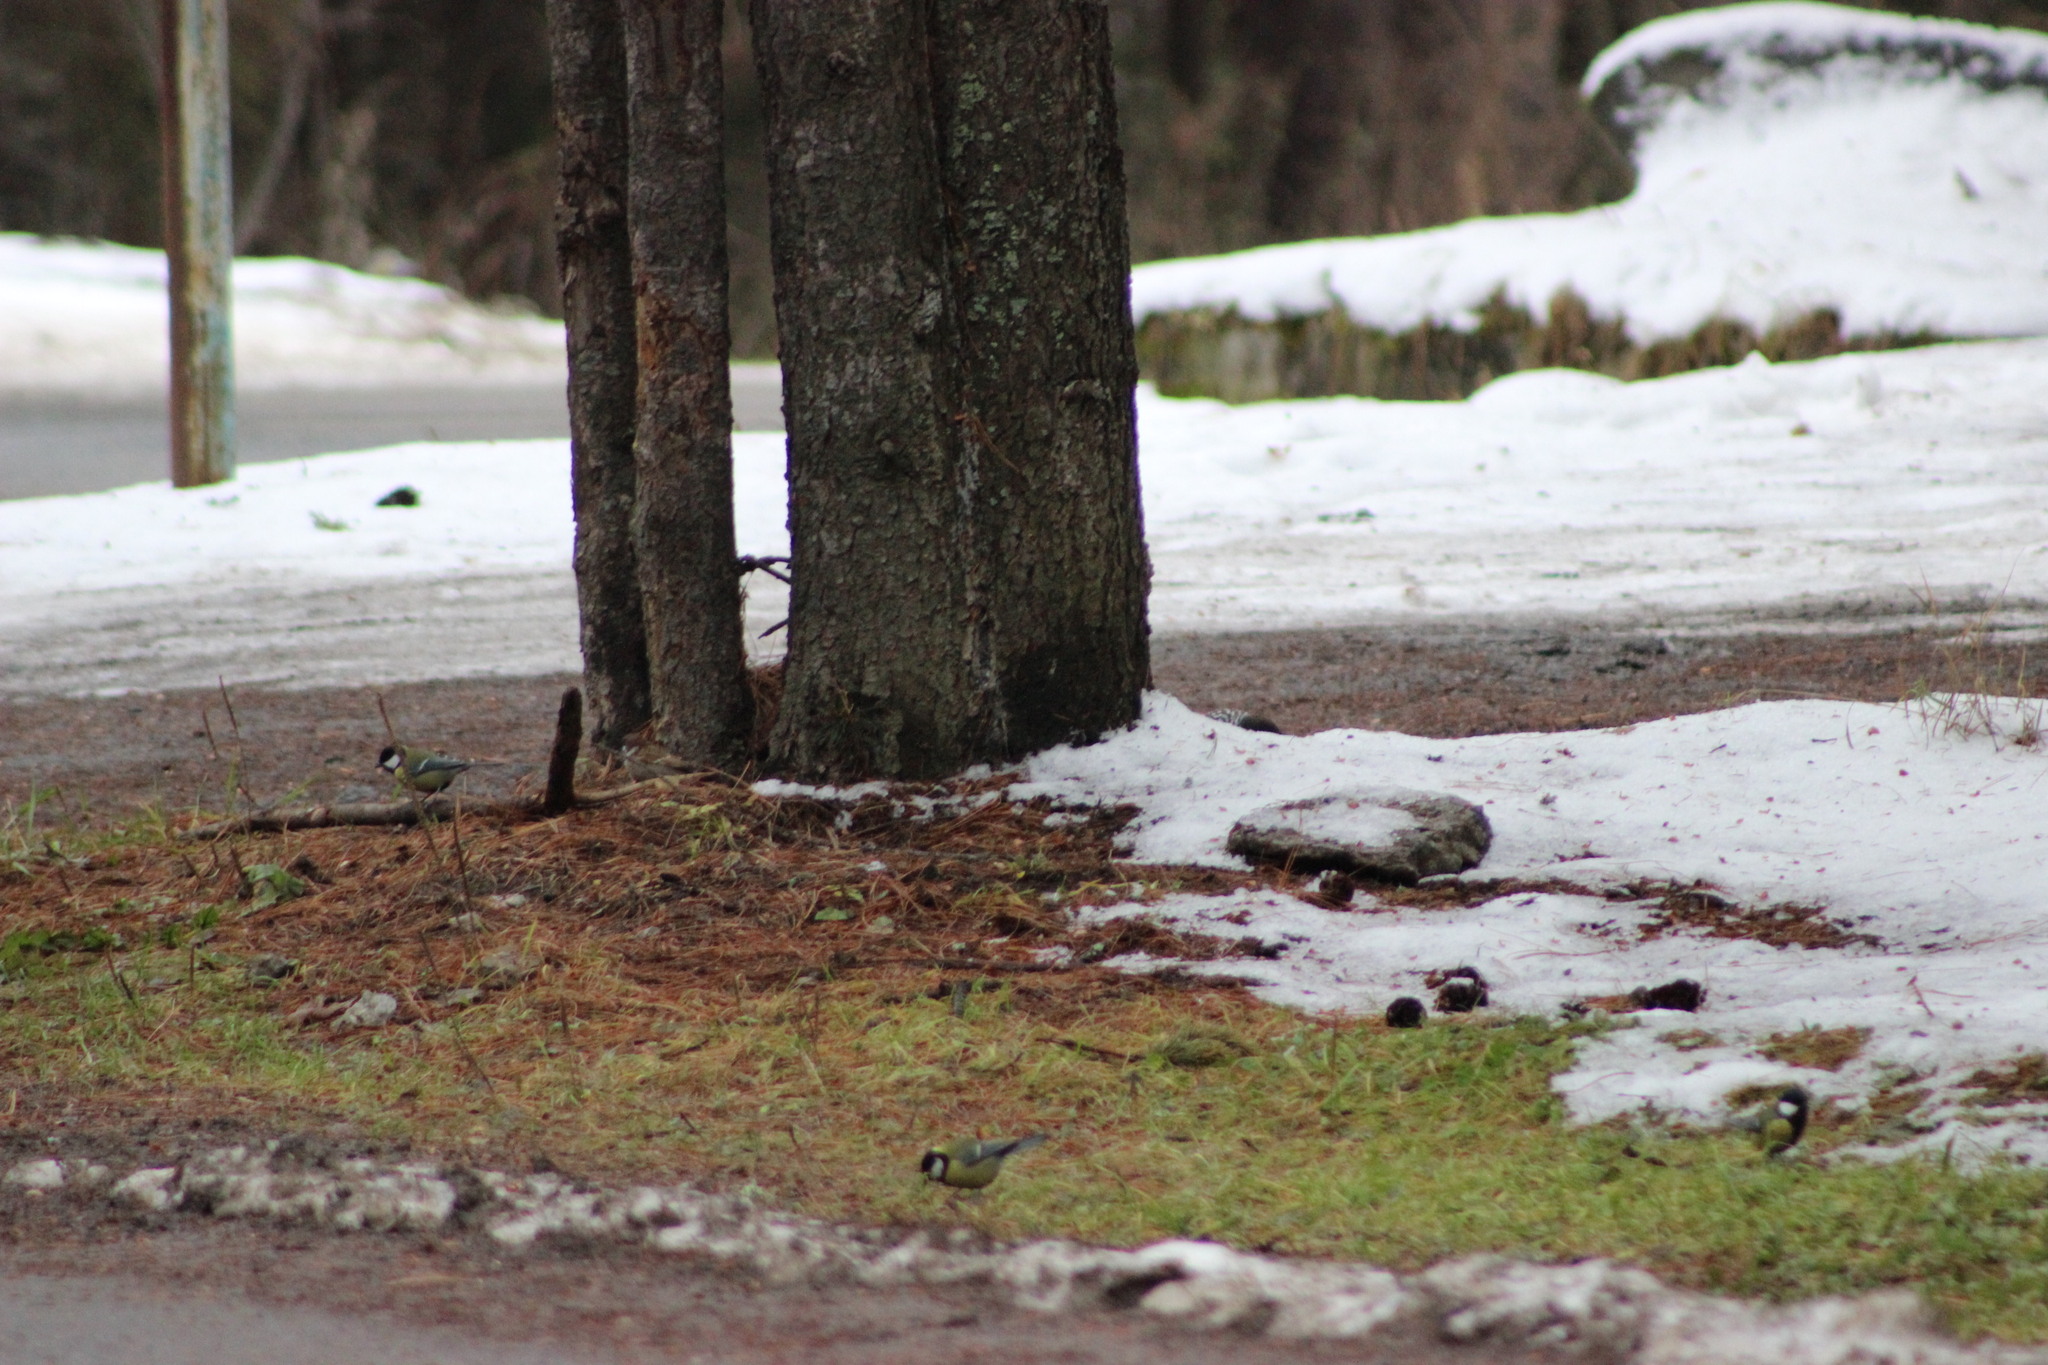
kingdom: Animalia
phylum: Chordata
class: Aves
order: Passeriformes
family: Paridae
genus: Parus
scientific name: Parus major
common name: Great tit
